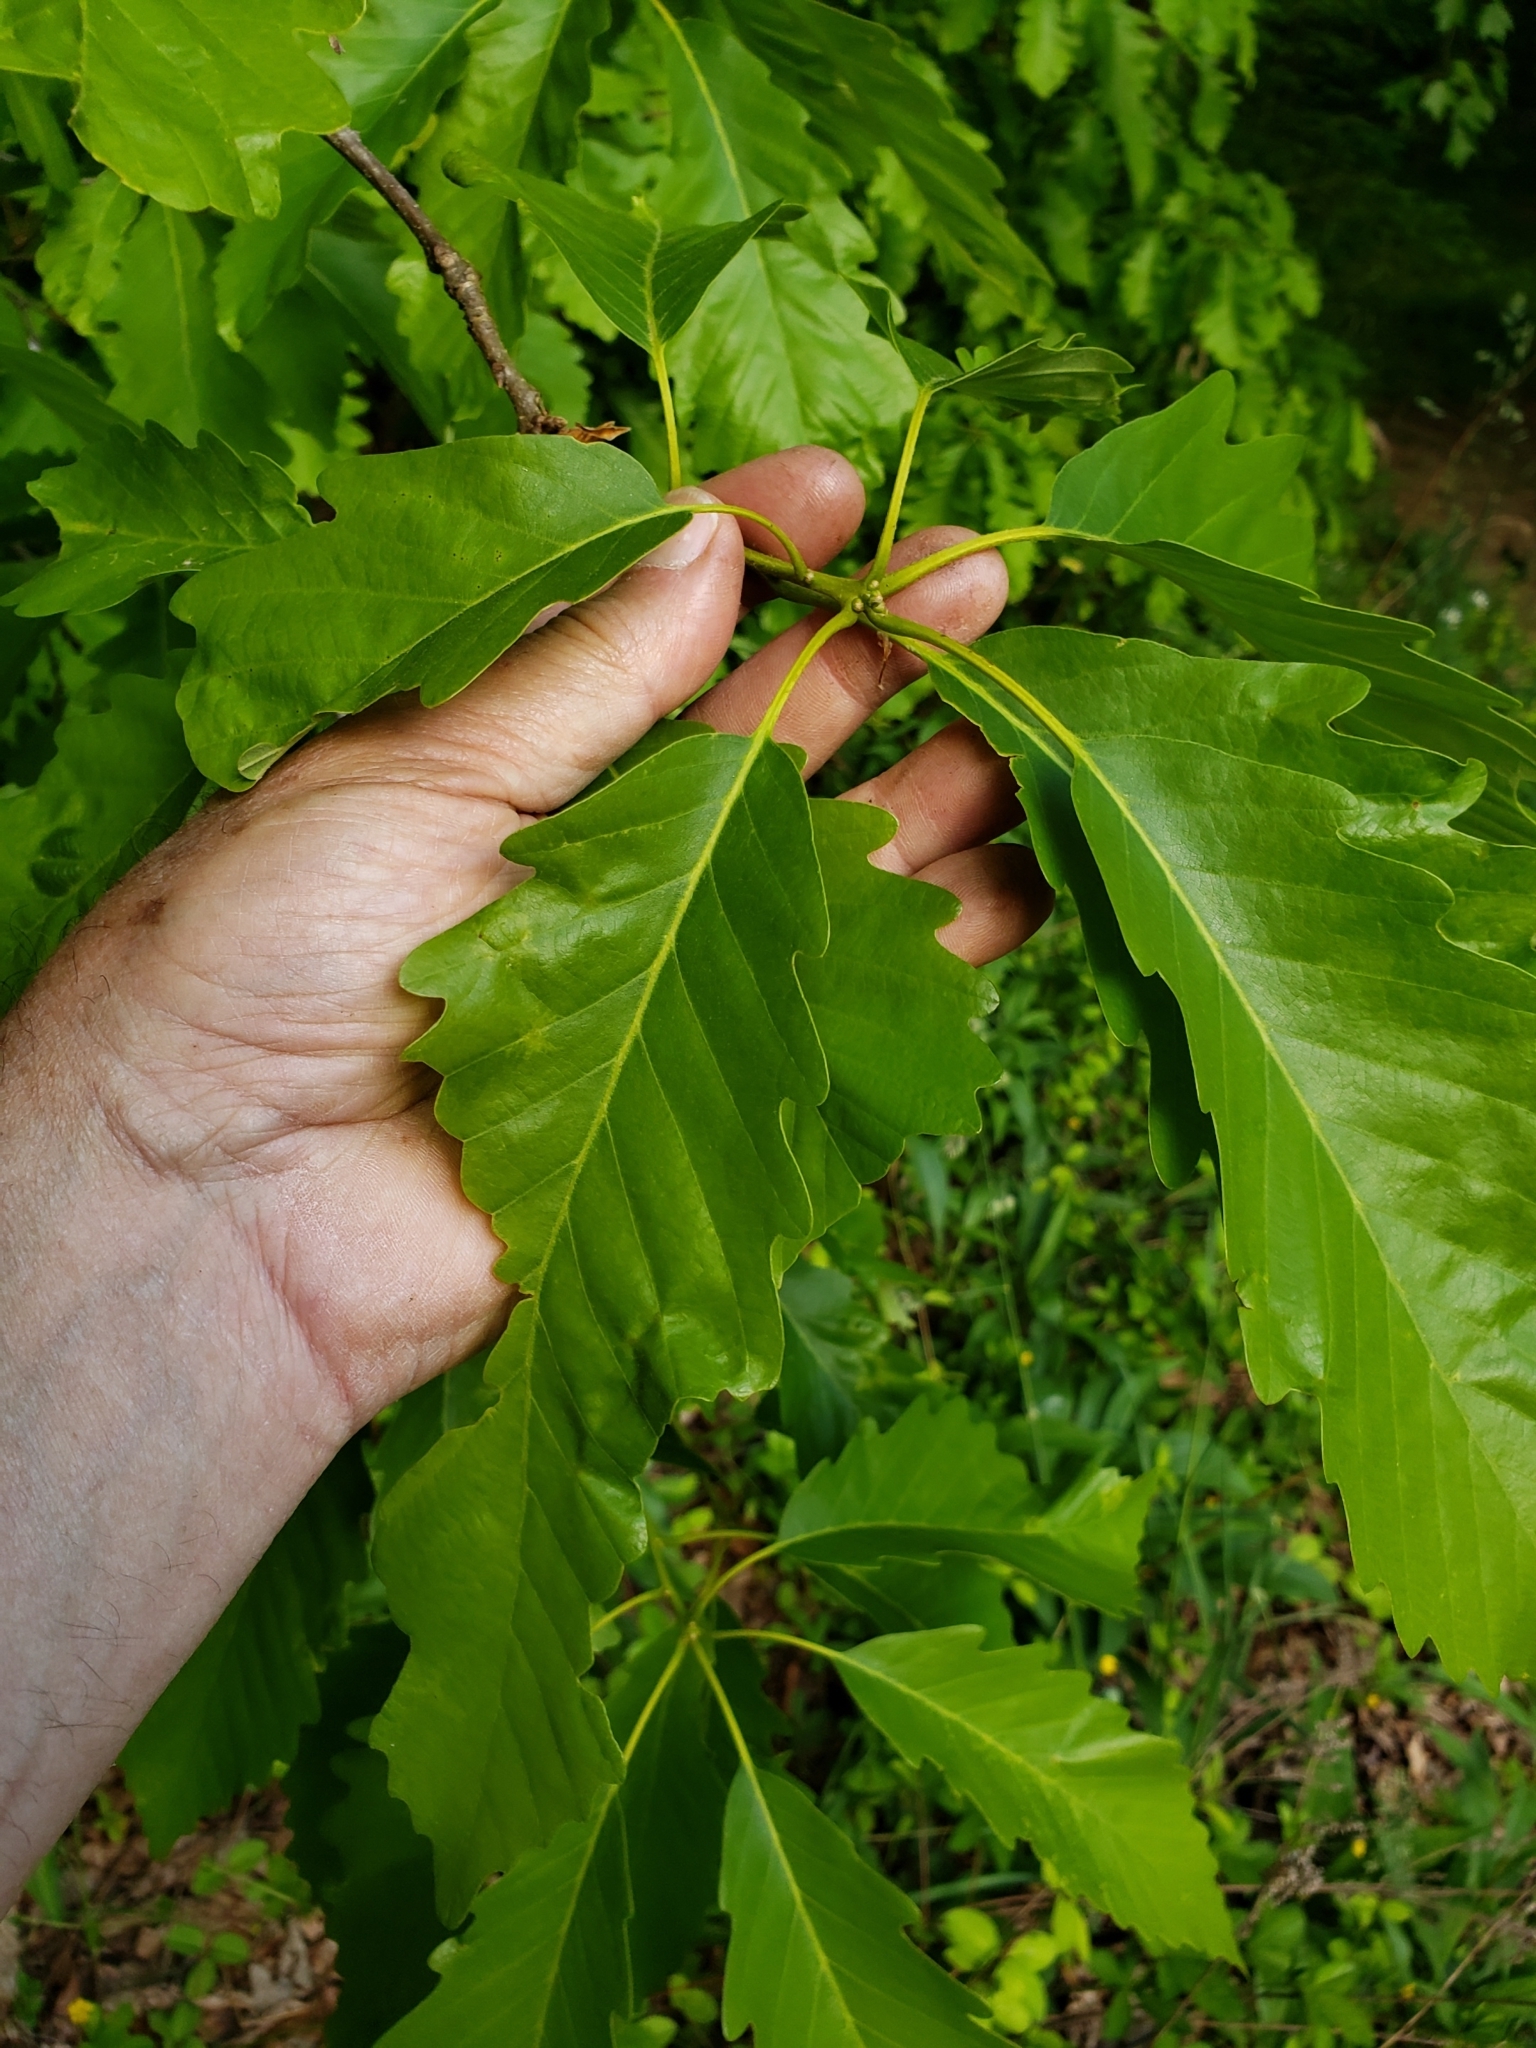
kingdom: Plantae
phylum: Tracheophyta
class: Magnoliopsida
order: Fagales
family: Fagaceae
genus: Quercus
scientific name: Quercus montana
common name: Chestnut oak
